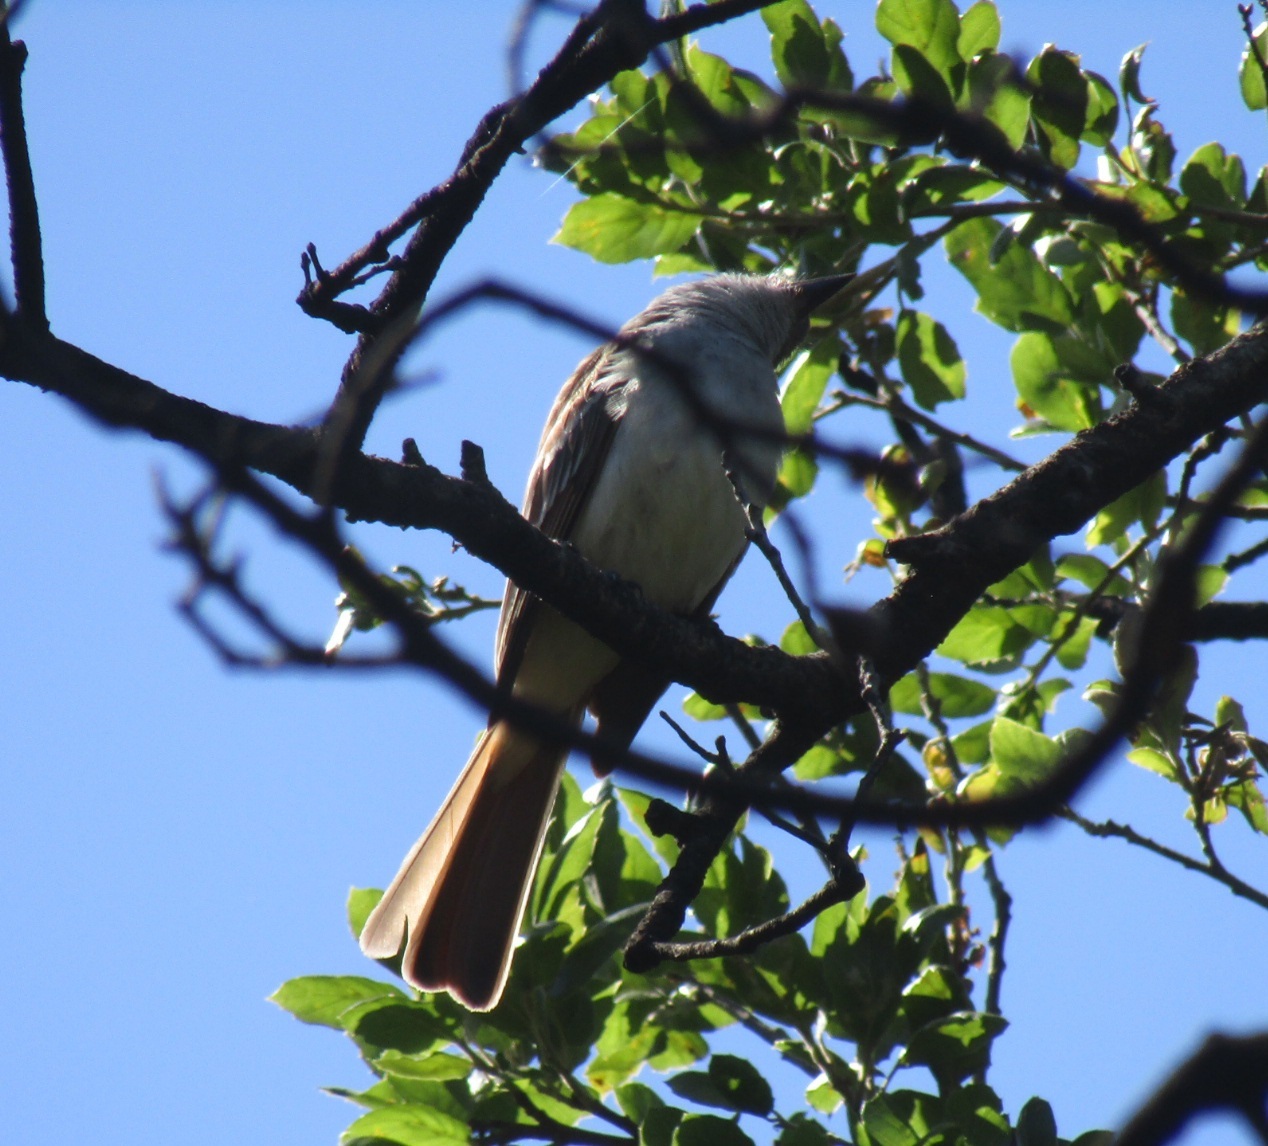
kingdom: Animalia
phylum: Chordata
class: Aves
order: Passeriformes
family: Tyrannidae
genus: Myiarchus
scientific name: Myiarchus cinerascens
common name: Ash-throated flycatcher
